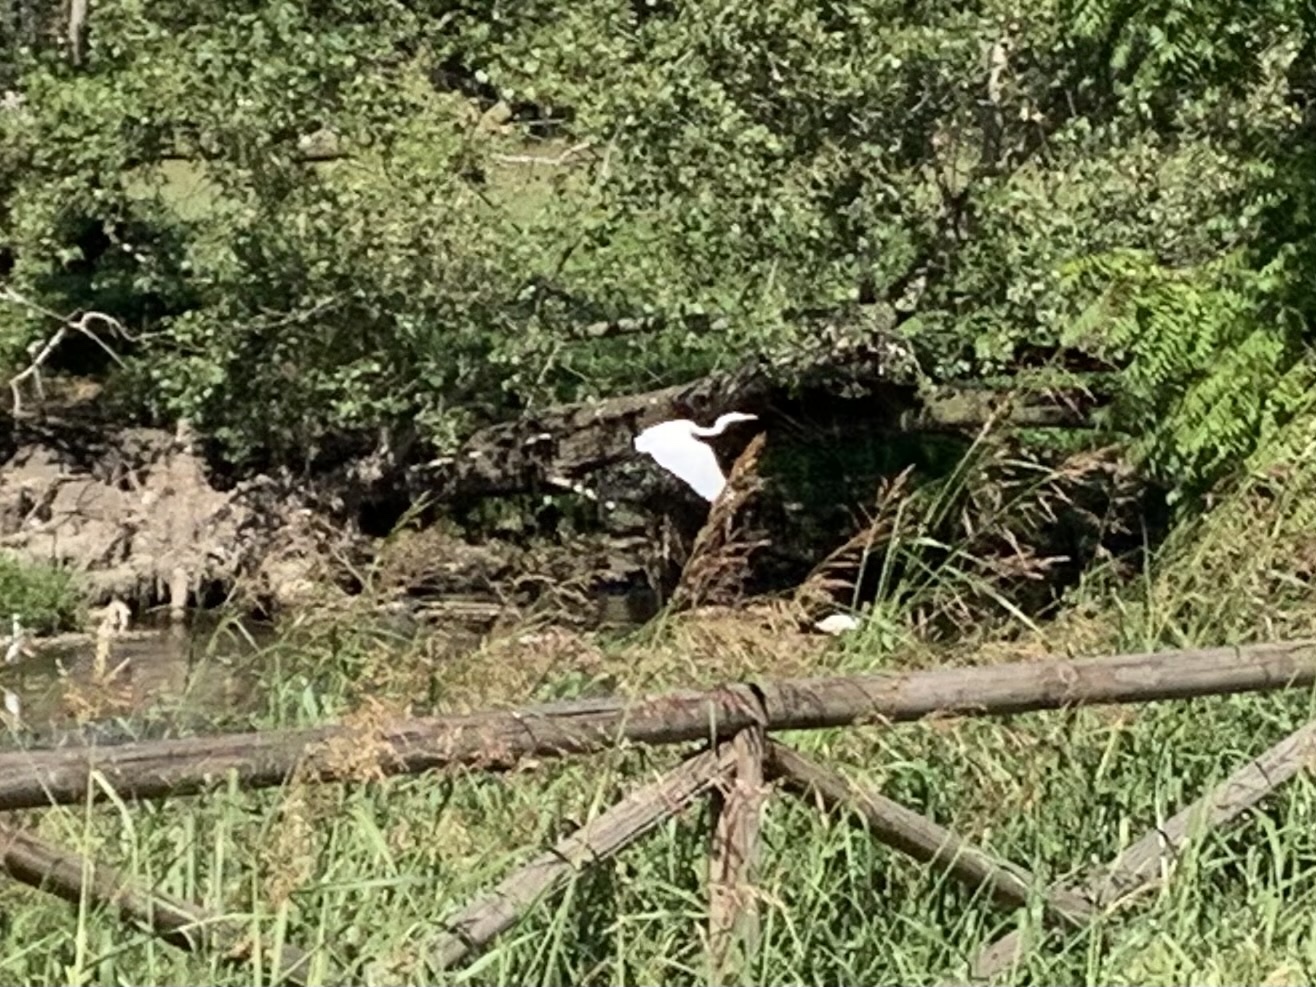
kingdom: Animalia
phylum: Chordata
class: Aves
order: Pelecaniformes
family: Ardeidae
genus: Ardea
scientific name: Ardea alba
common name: Great egret
